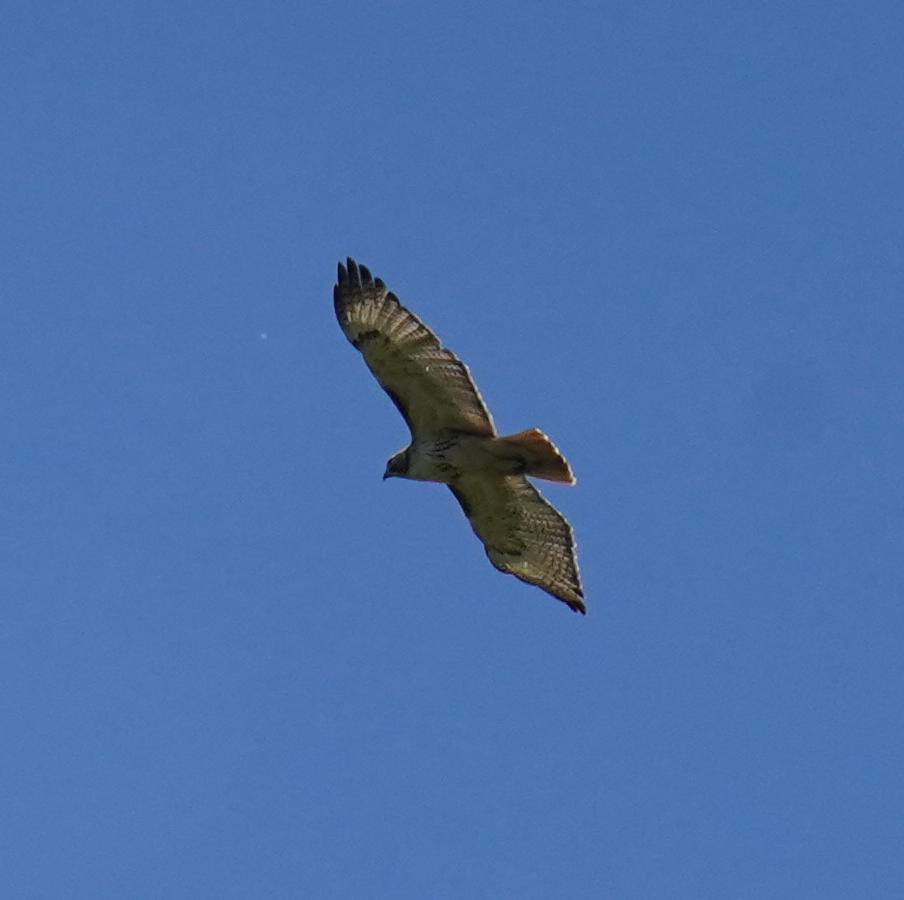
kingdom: Animalia
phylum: Chordata
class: Aves
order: Accipitriformes
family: Accipitridae
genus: Buteo
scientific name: Buteo jamaicensis
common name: Red-tailed hawk
